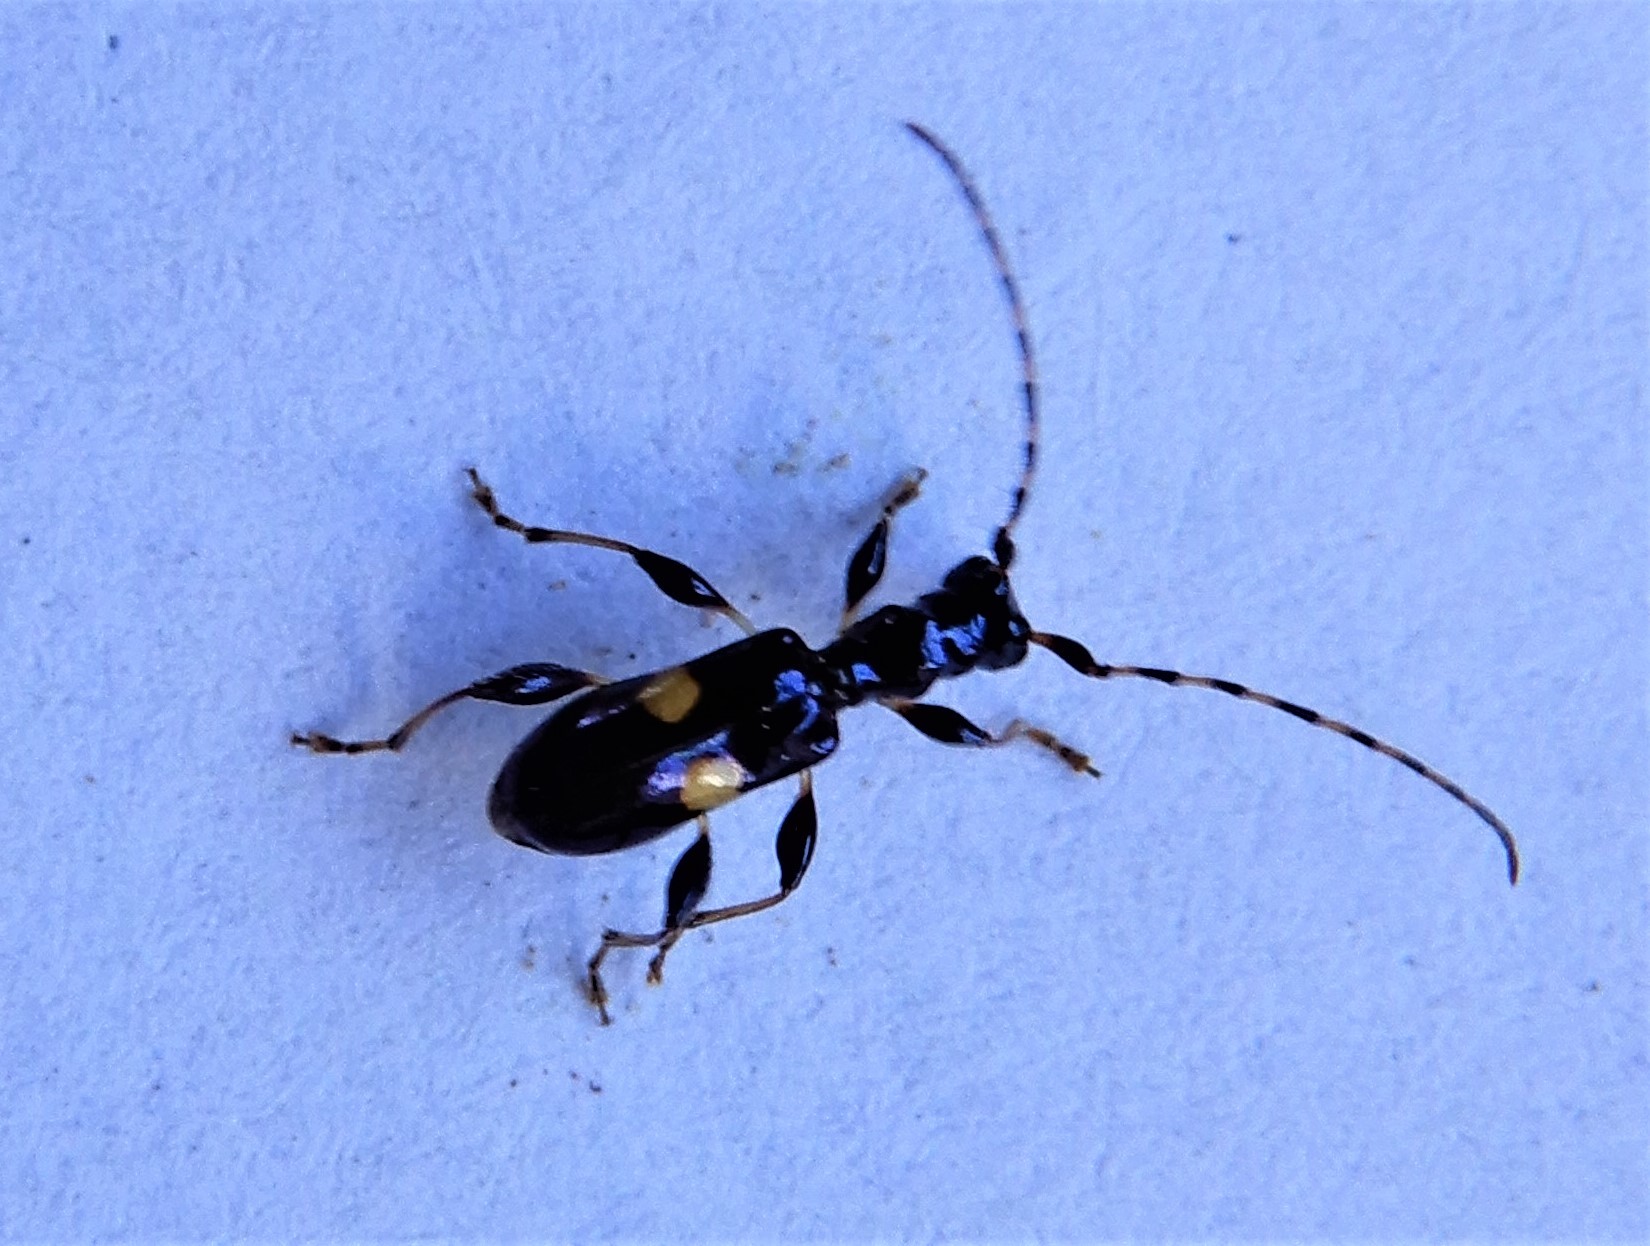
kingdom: Animalia
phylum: Arthropoda
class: Insecta
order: Coleoptera
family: Cerambycidae
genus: Zorion
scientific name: Zorion guttigerum
